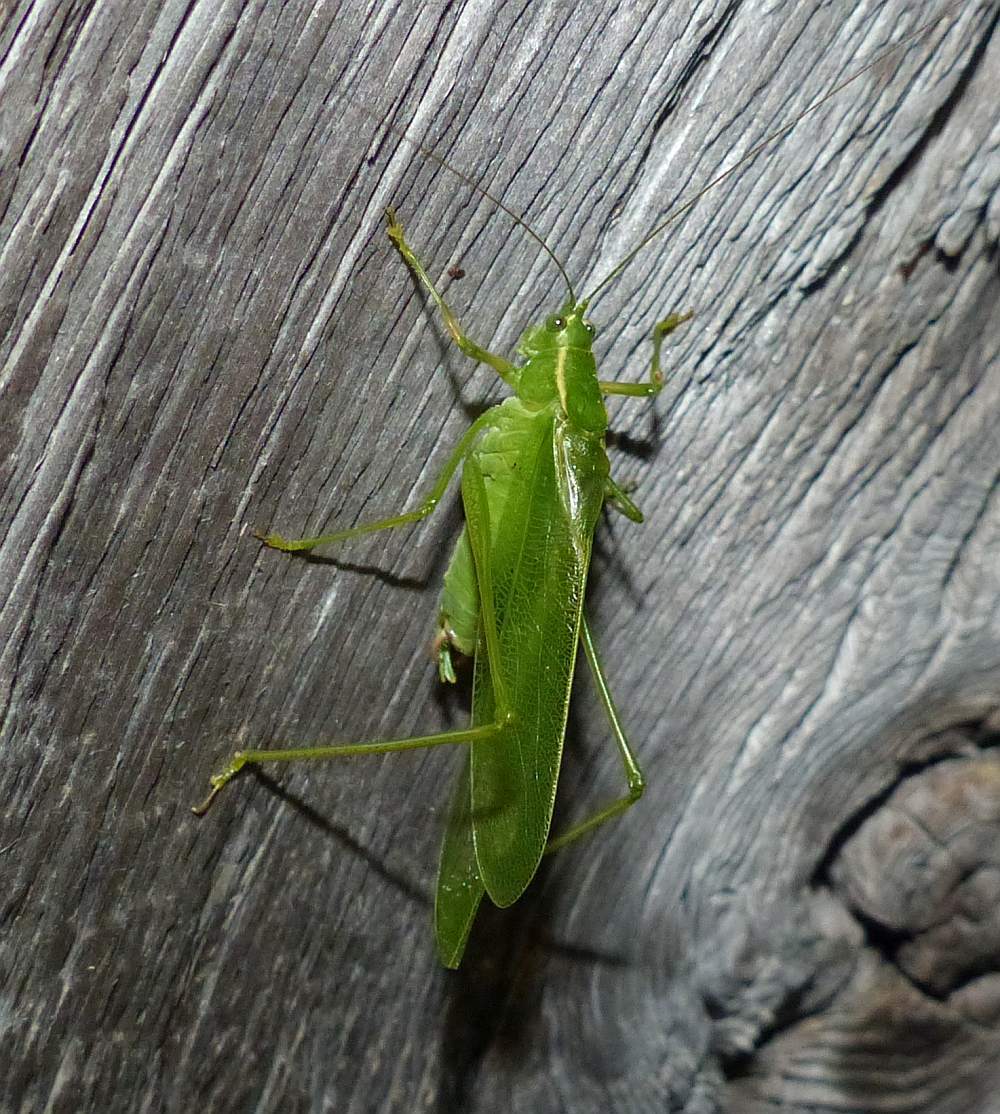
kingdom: Animalia
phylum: Arthropoda
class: Insecta
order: Orthoptera
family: Tettigoniidae
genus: Scudderia
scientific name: Scudderia septentrionalis
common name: Northern bush-katydid
